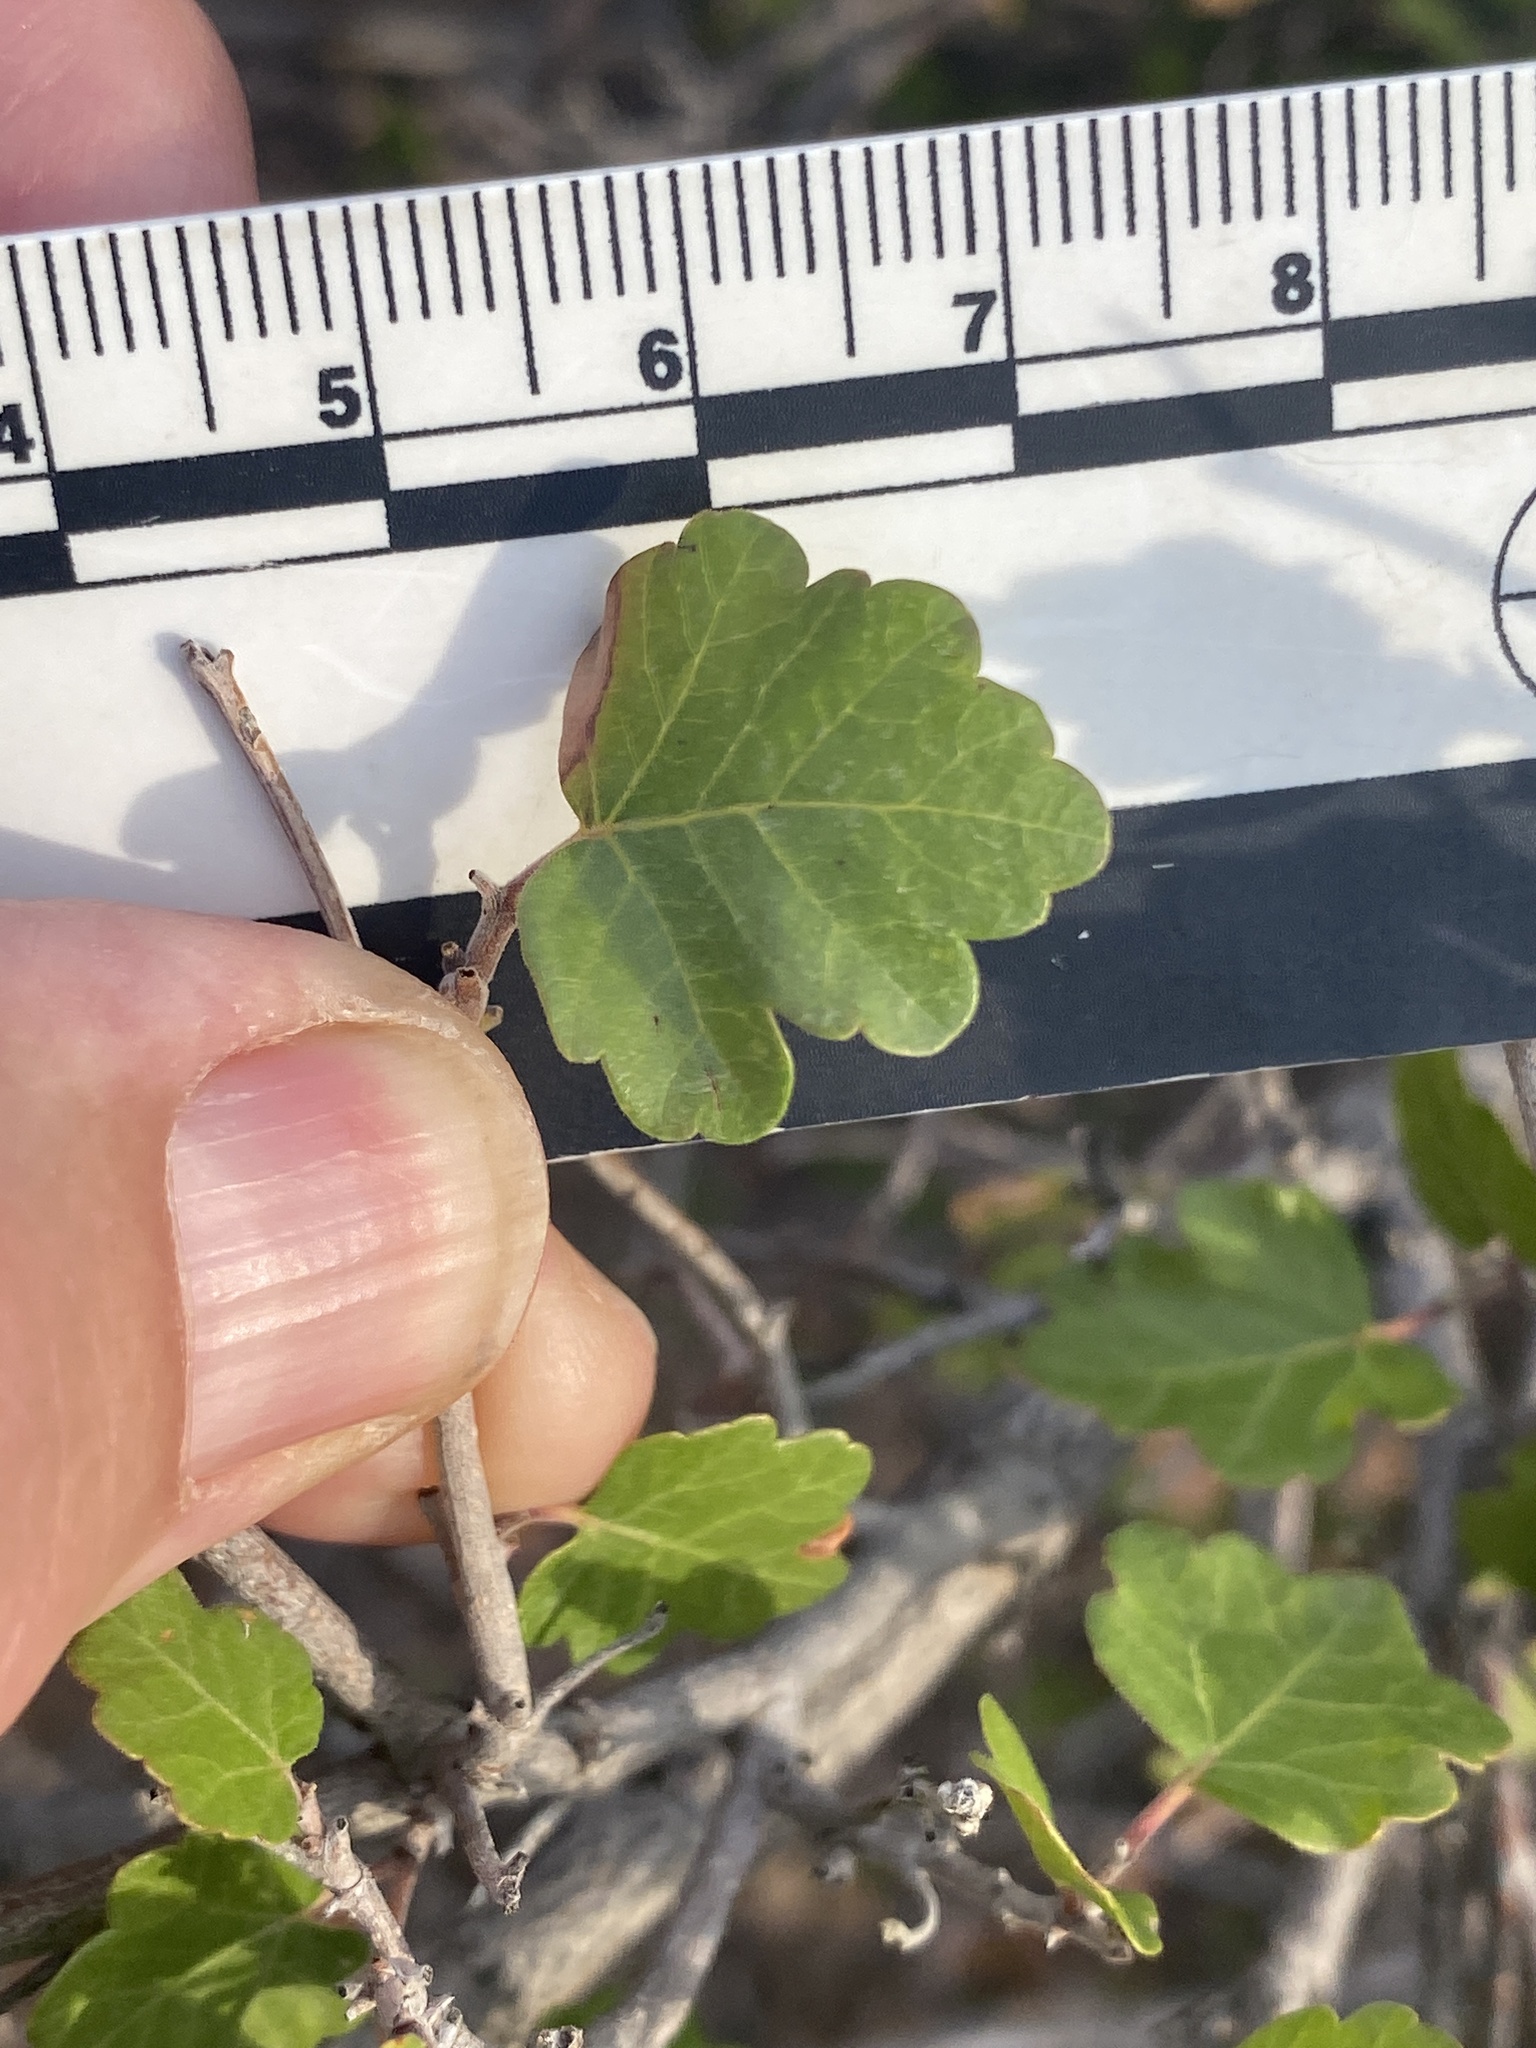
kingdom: Plantae
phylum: Tracheophyta
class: Magnoliopsida
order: Sapindales
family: Anacardiaceae
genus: Rhus
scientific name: Rhus trilobata
